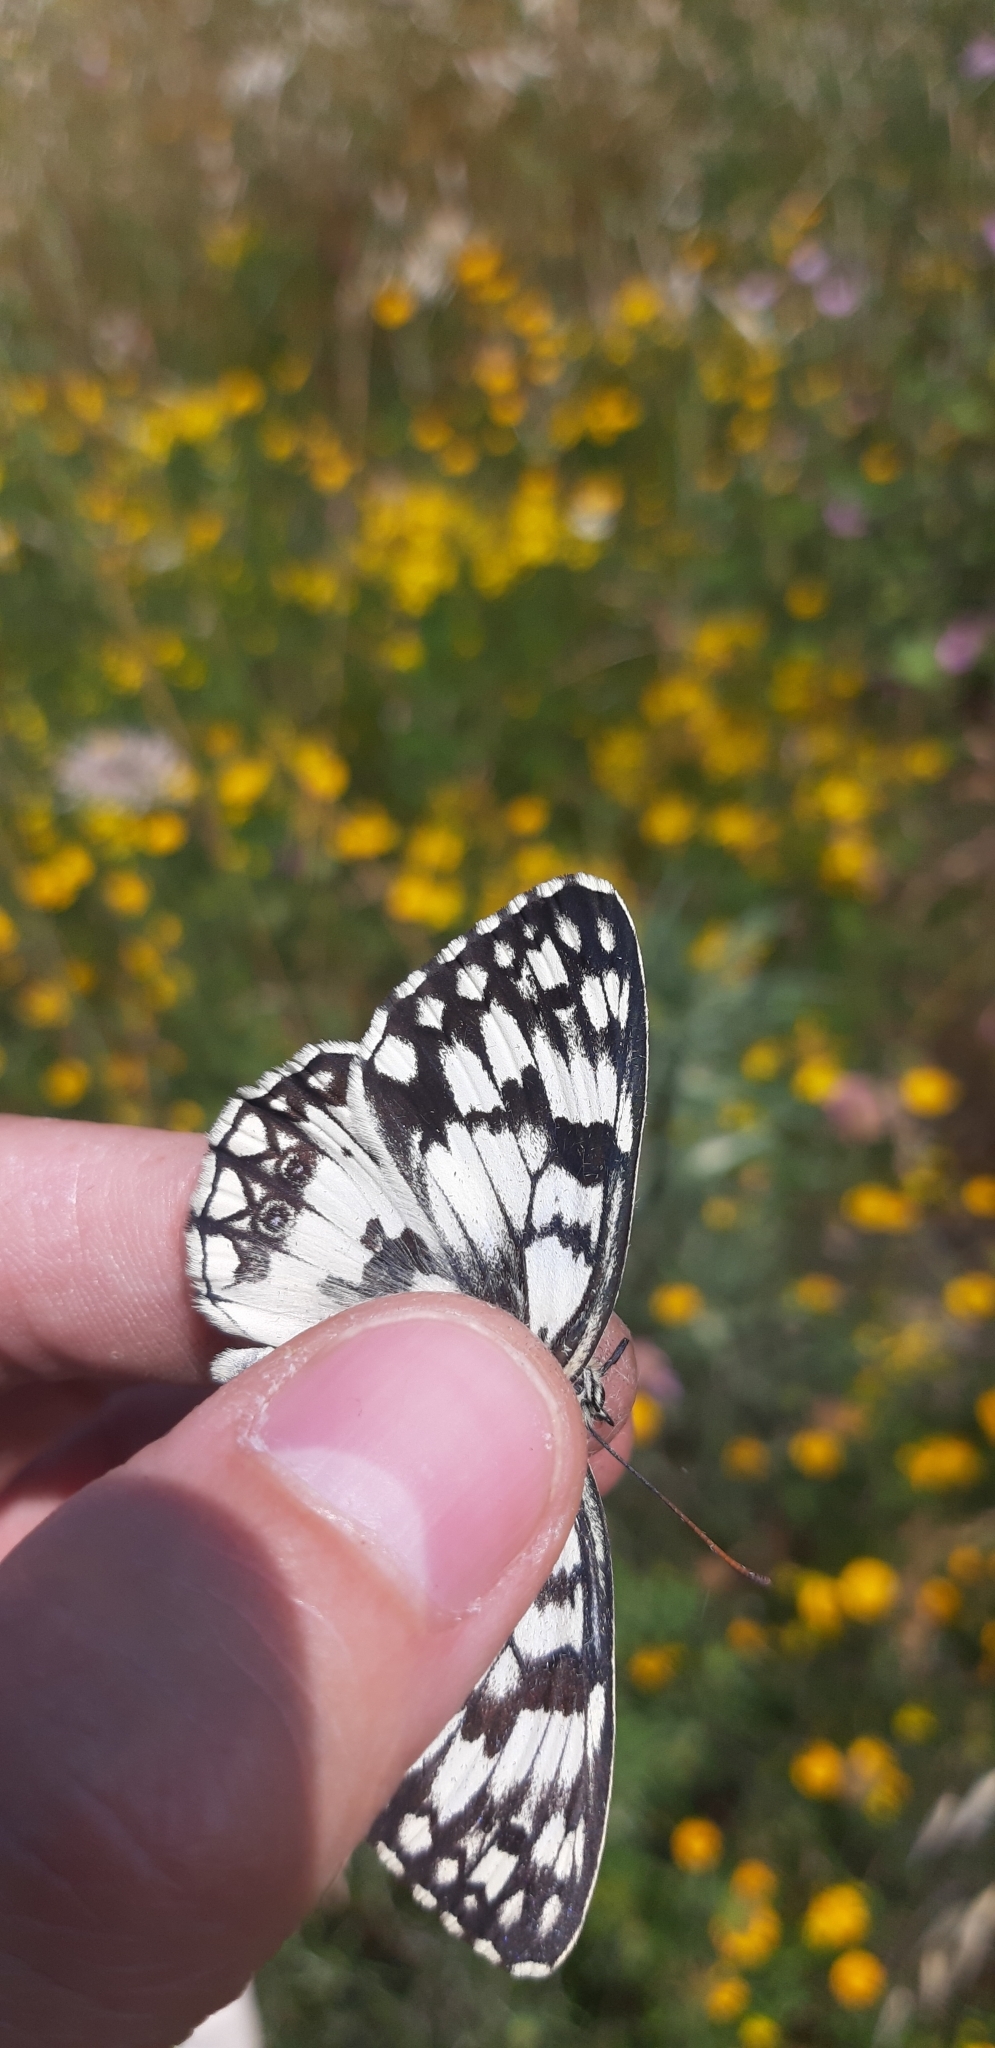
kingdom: Animalia
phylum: Arthropoda
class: Insecta
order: Lepidoptera
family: Nymphalidae
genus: Melanargia
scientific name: Melanargia japygia
